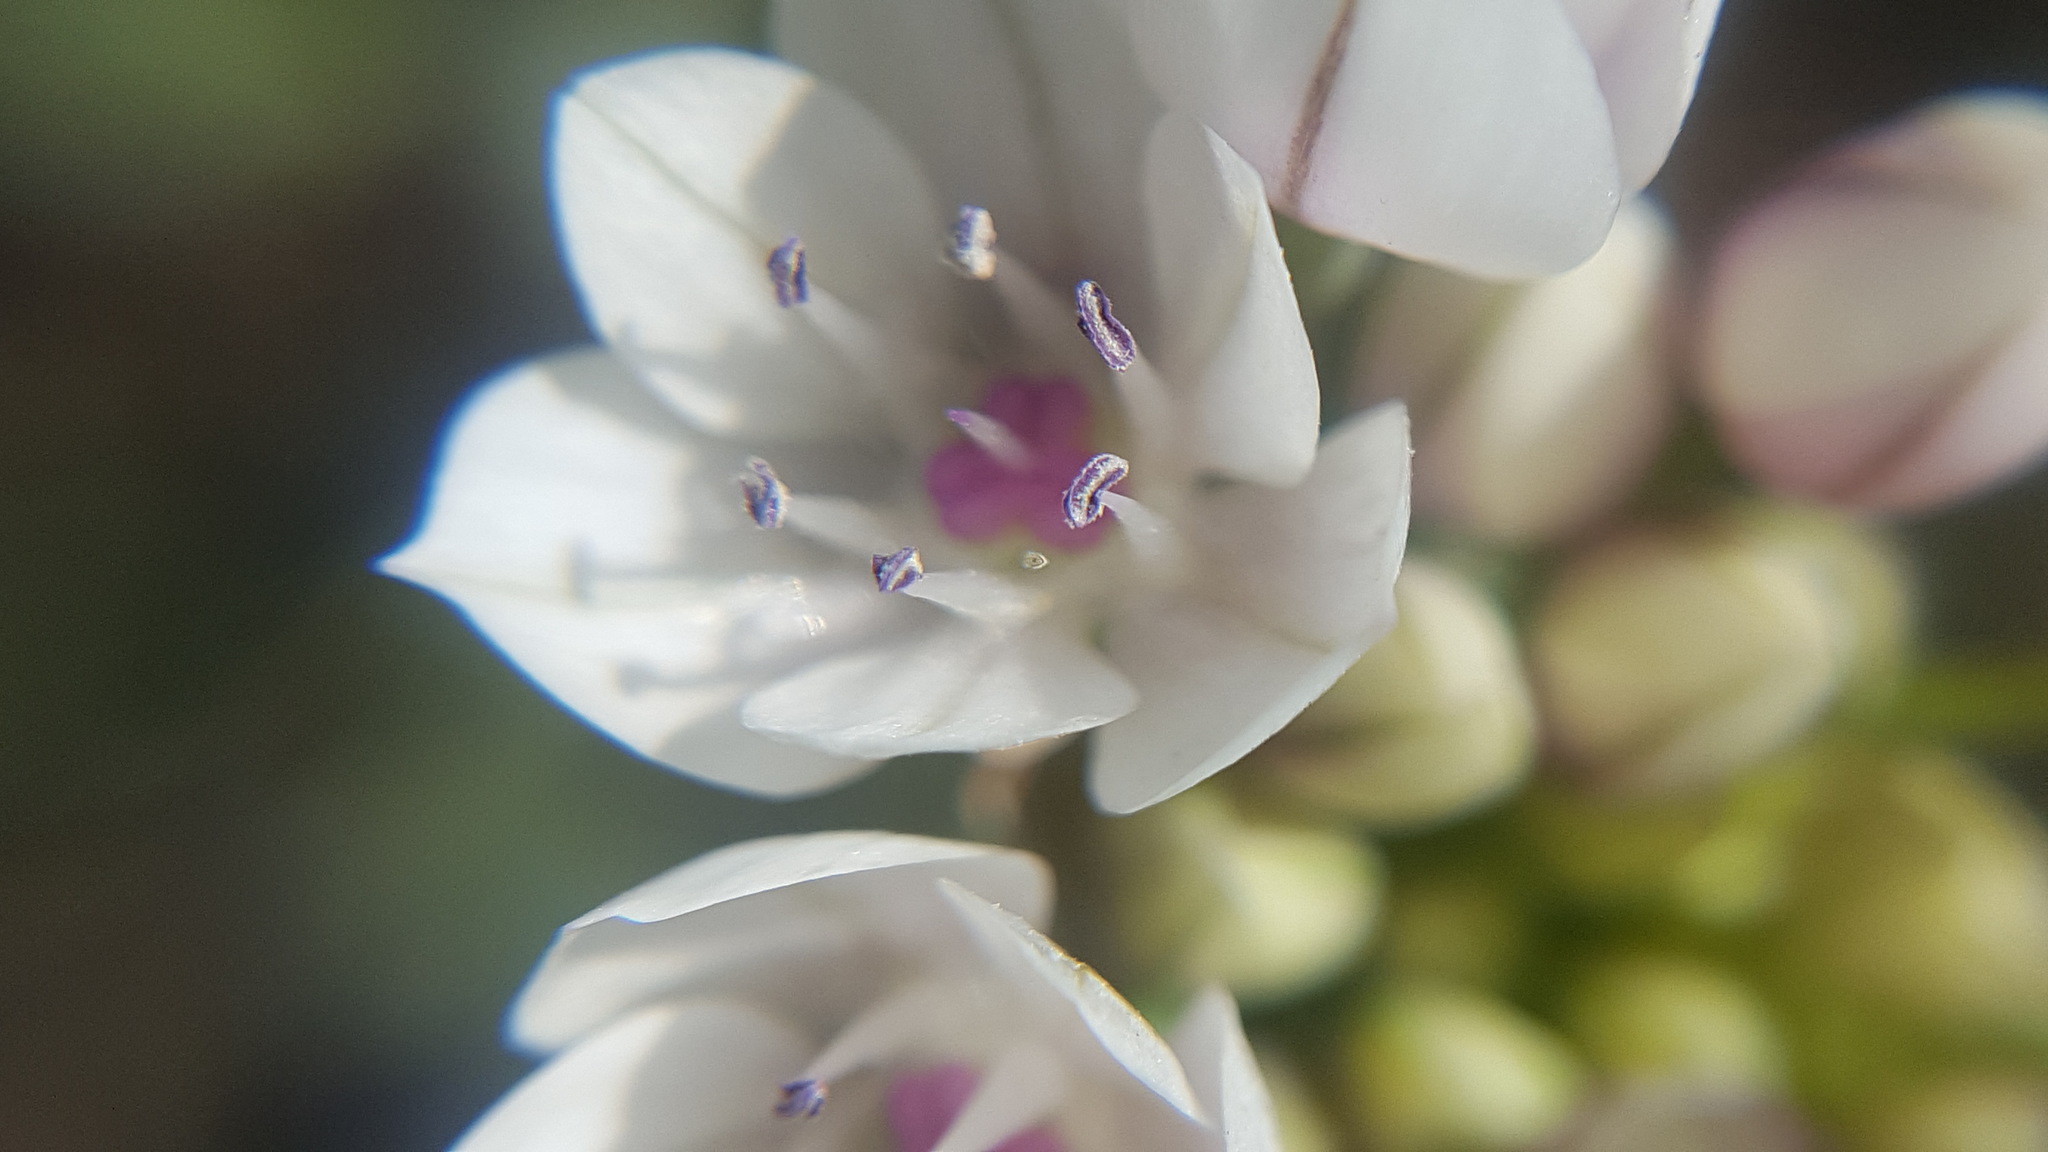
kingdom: Plantae
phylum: Tracheophyta
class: Liliopsida
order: Asparagales
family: Amaryllidaceae
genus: Allium
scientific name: Allium praecox
